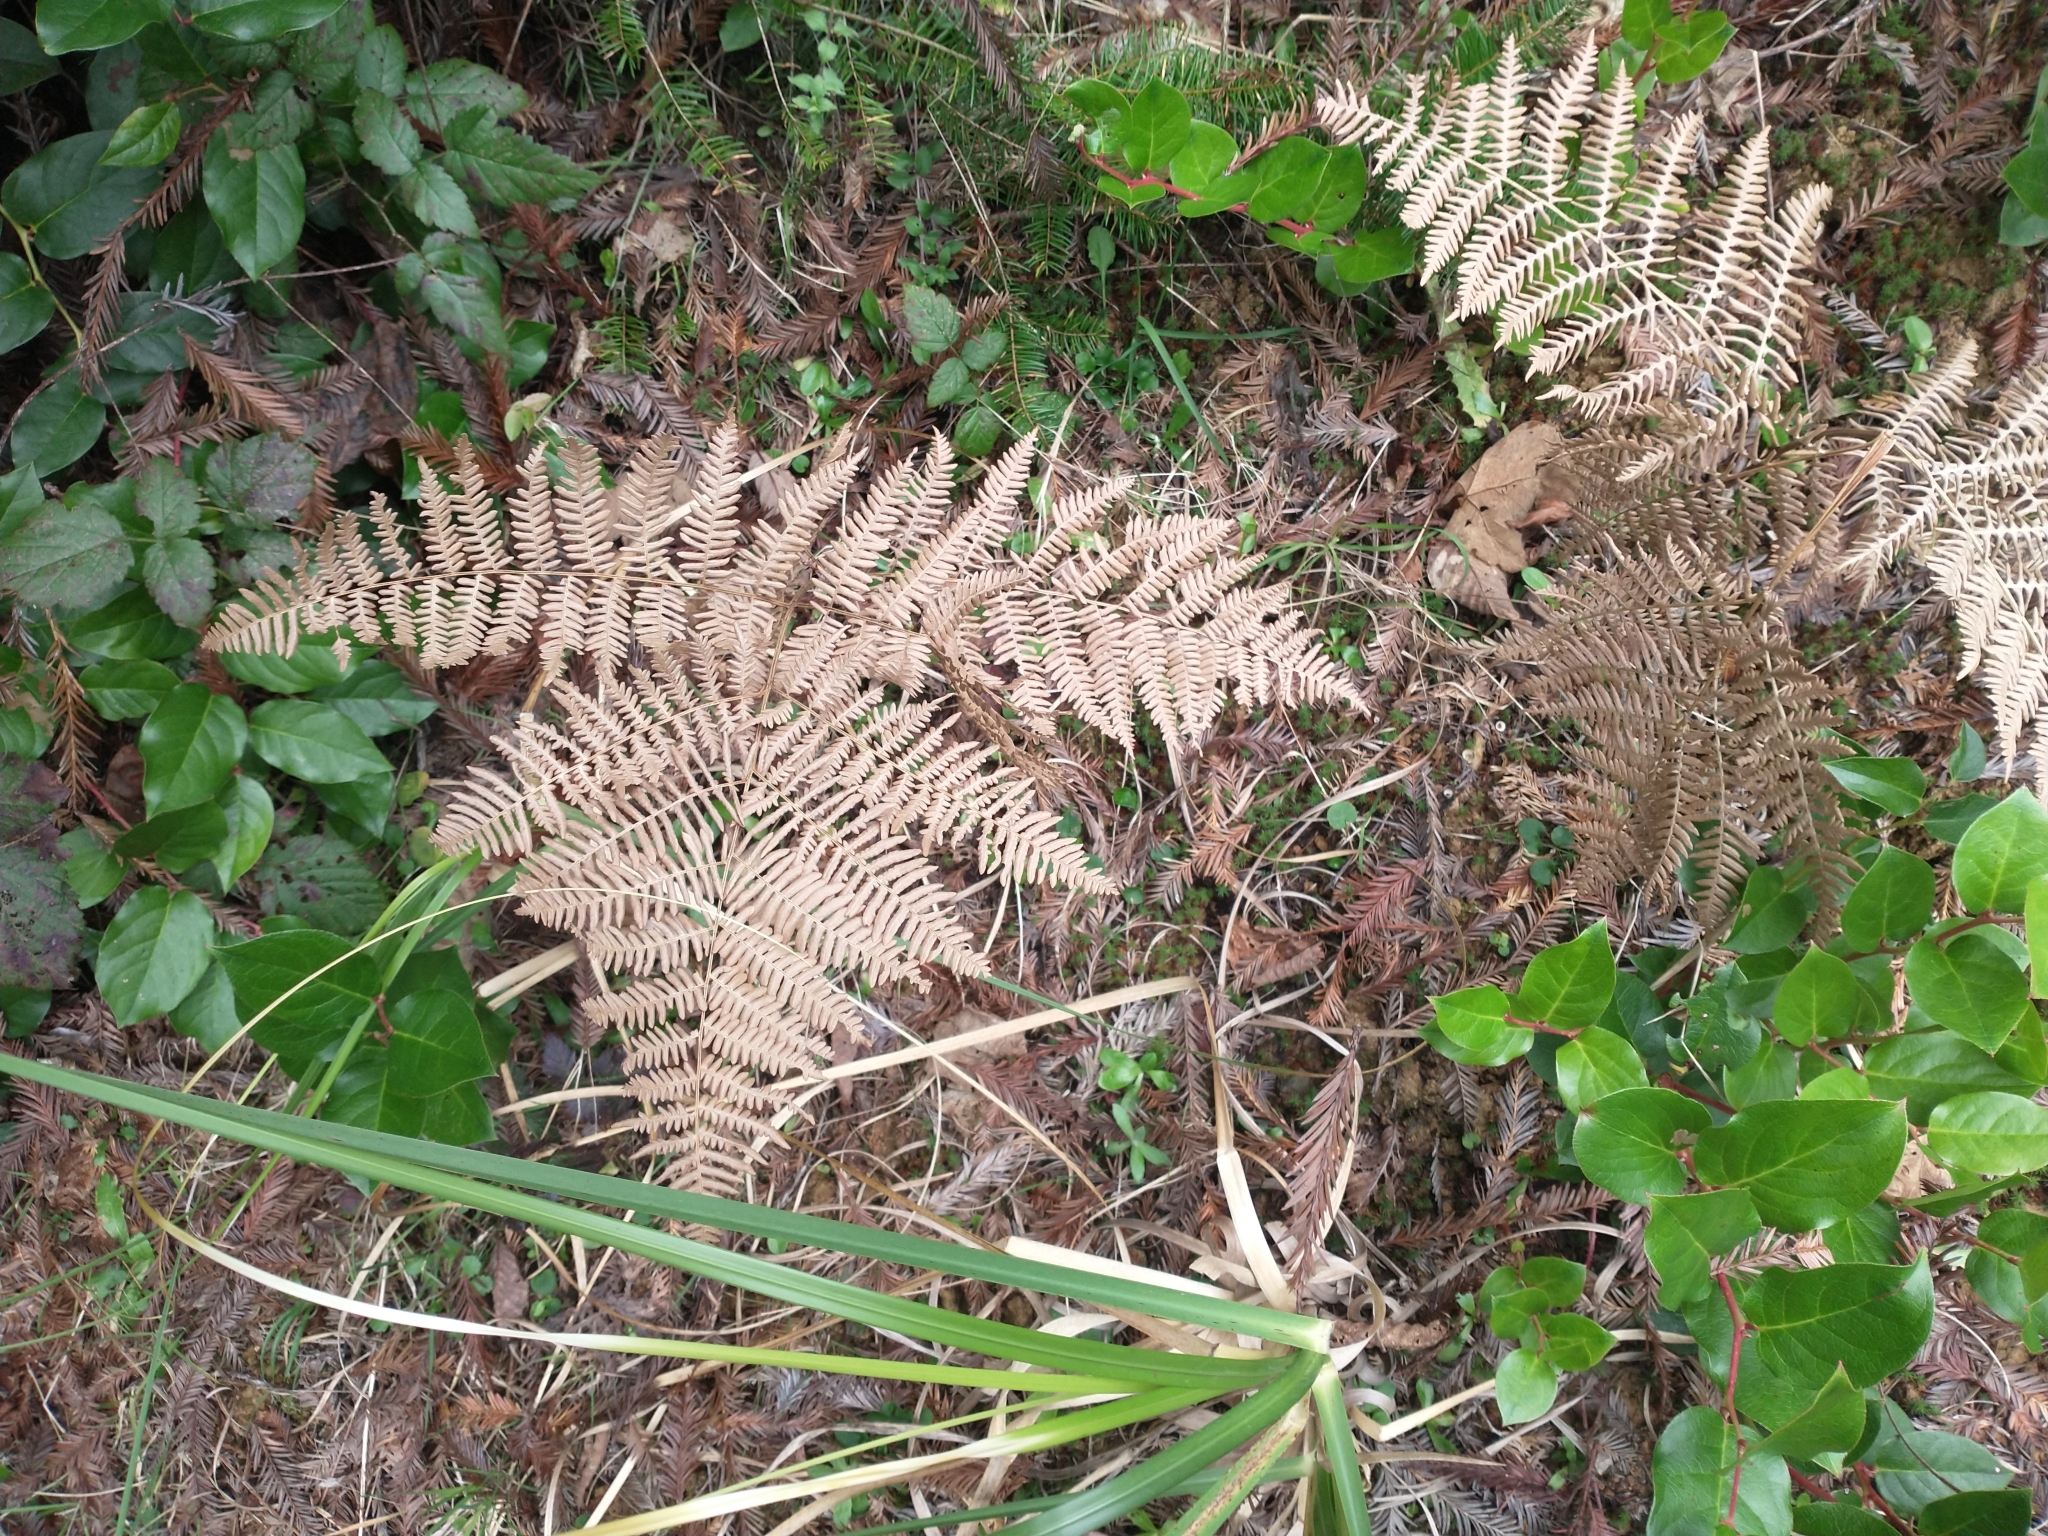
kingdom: Plantae
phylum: Tracheophyta
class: Polypodiopsida
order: Polypodiales
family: Dennstaedtiaceae
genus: Pteridium
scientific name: Pteridium aquilinum
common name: Bracken
